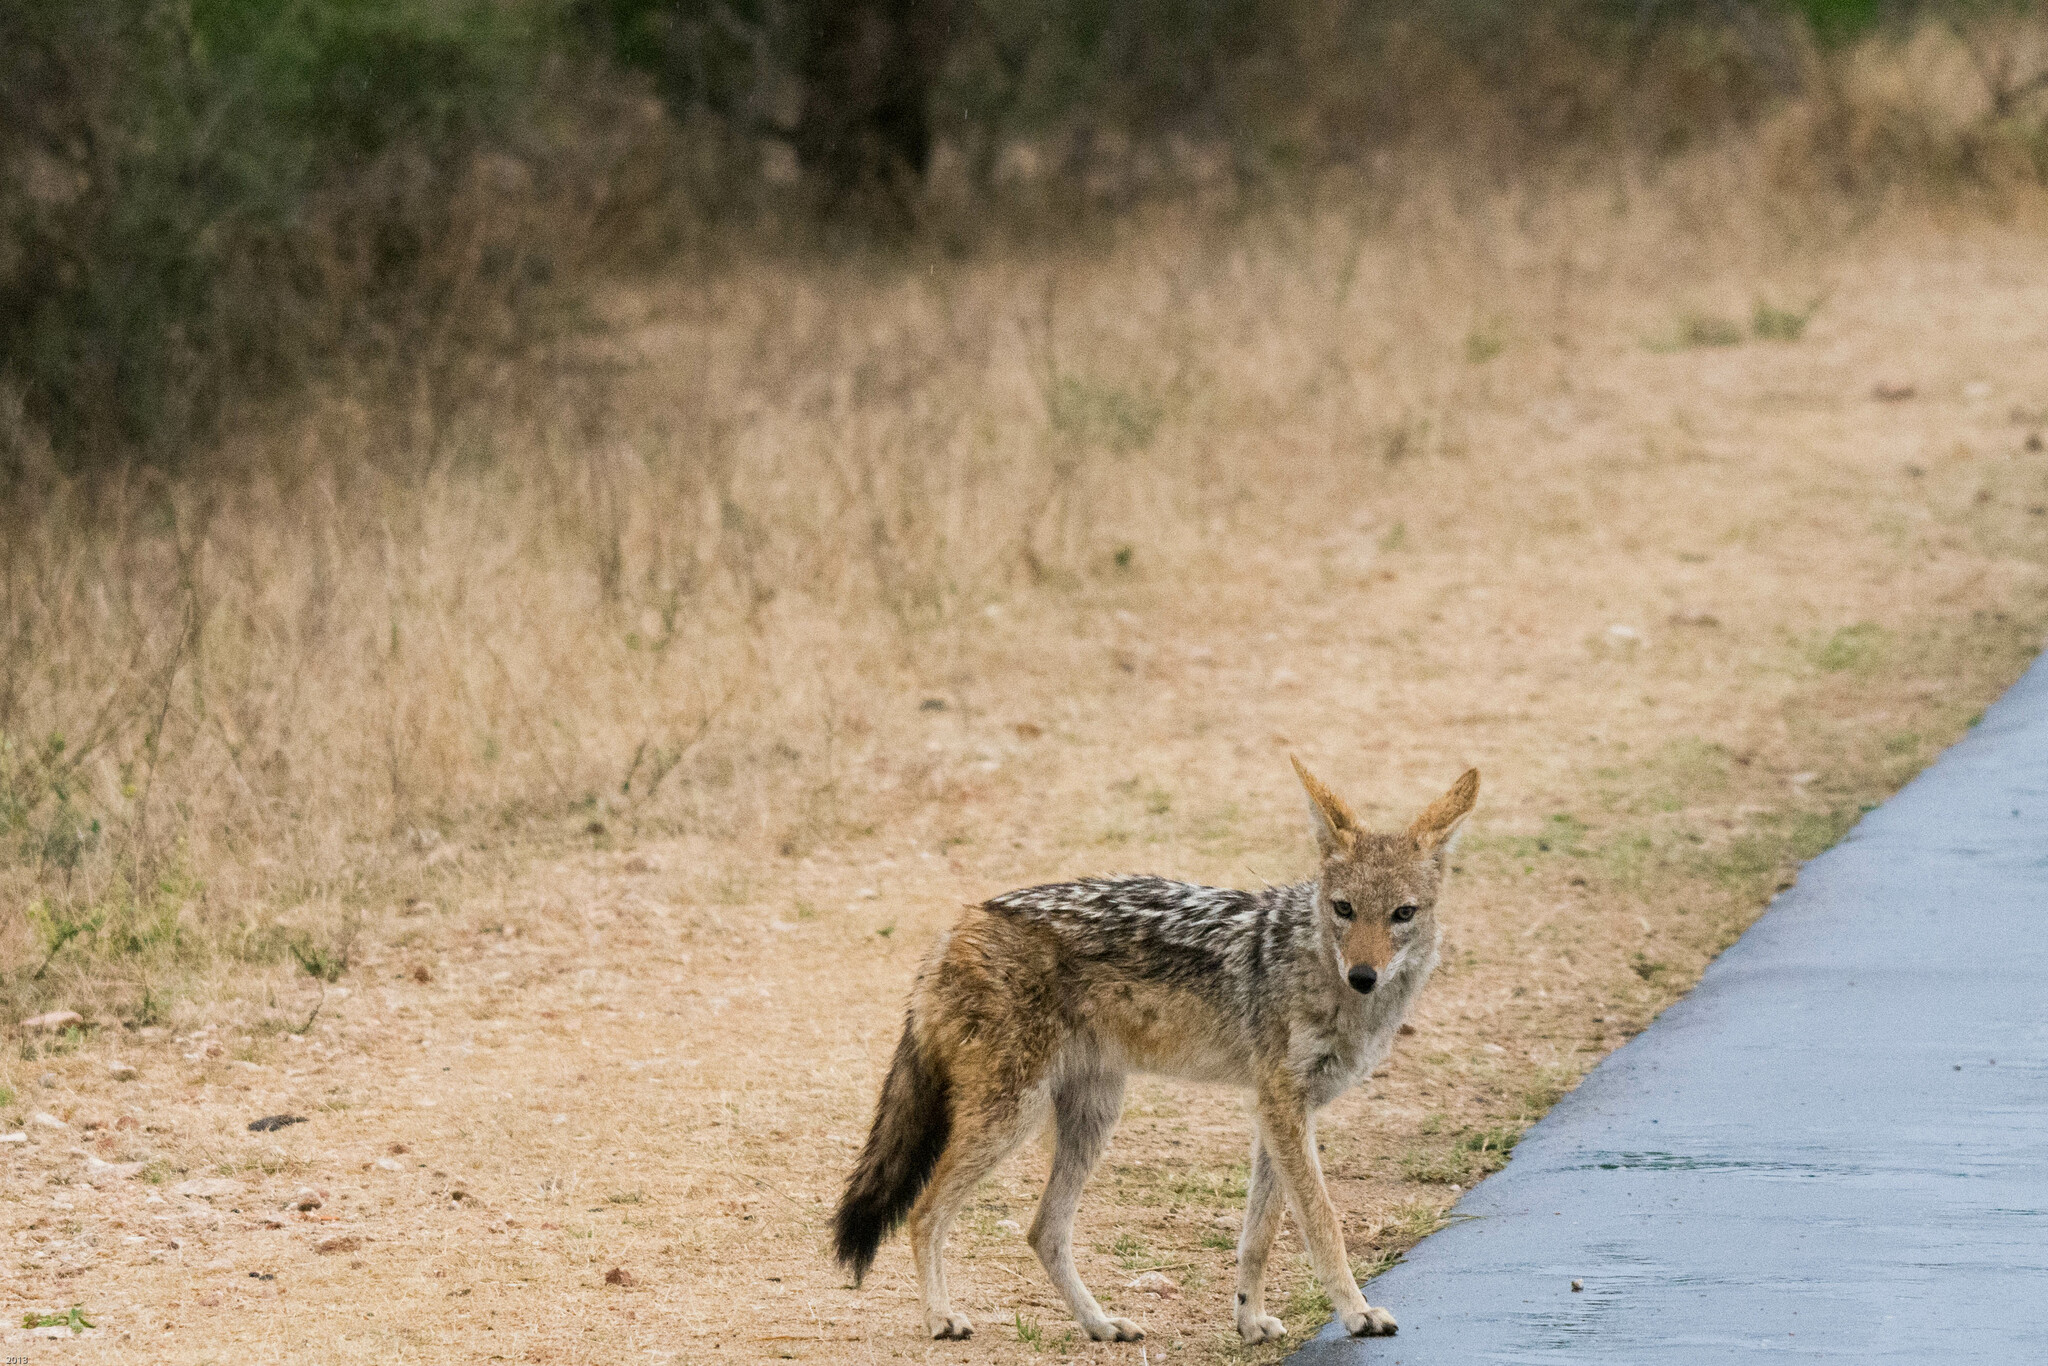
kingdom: Animalia
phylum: Chordata
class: Mammalia
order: Carnivora
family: Canidae
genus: Lupulella
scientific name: Lupulella
